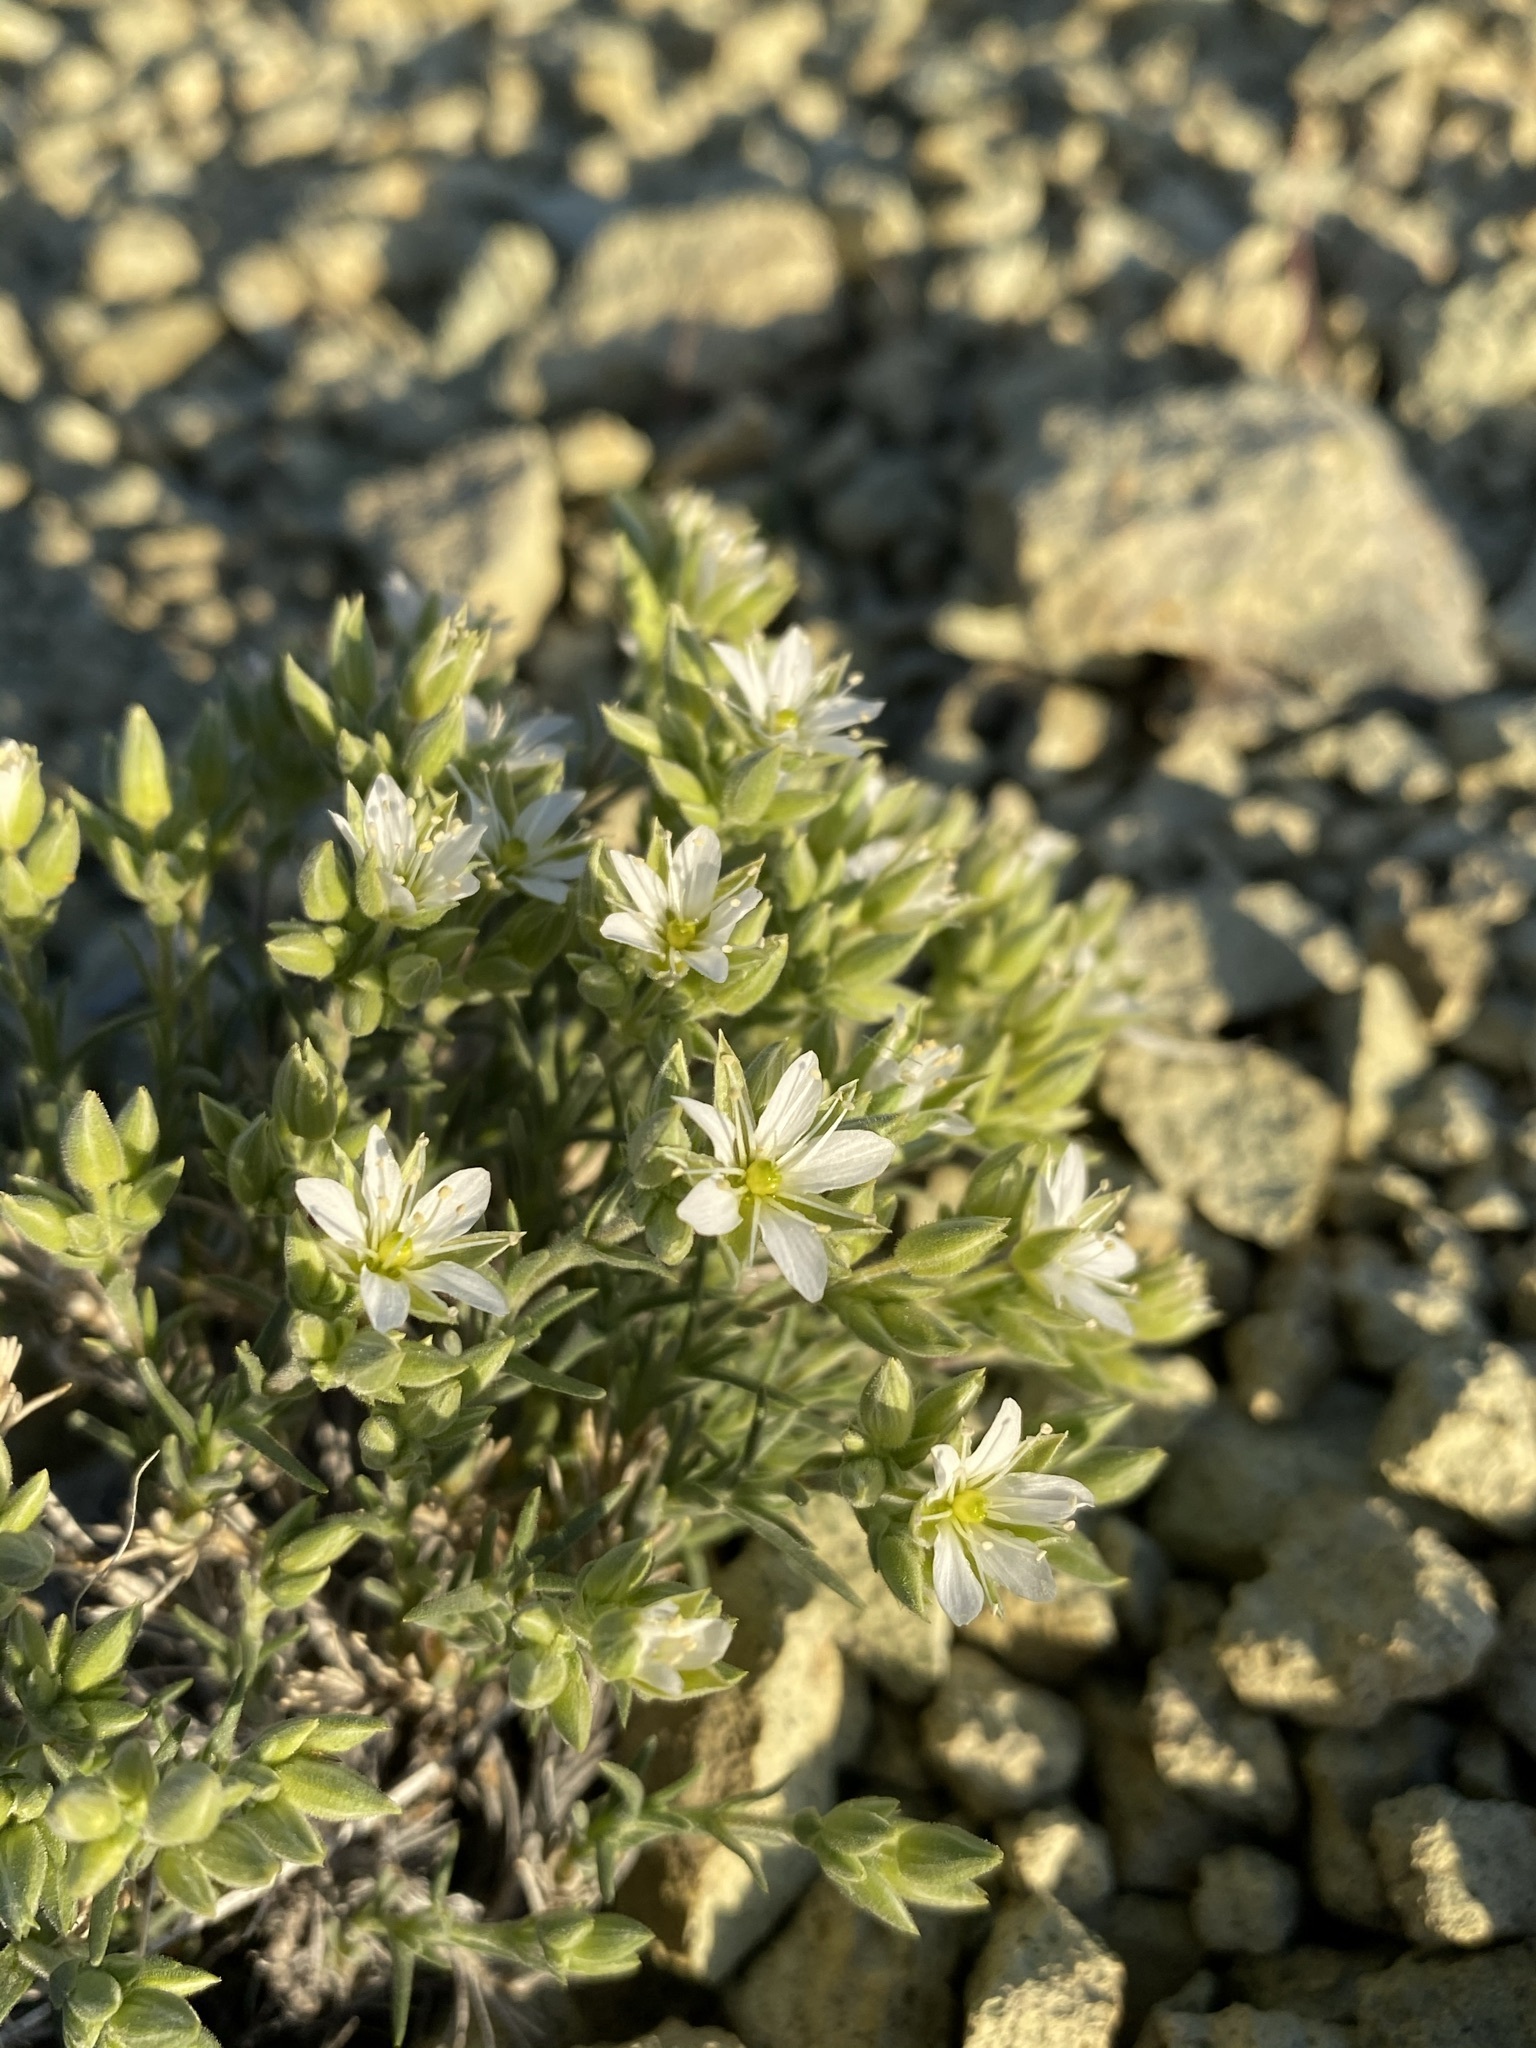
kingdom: Plantae
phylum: Tracheophyta
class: Magnoliopsida
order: Caryophyllales
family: Caryophyllaceae
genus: Sabulina
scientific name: Sabulina nuttallii
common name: Nuttall's stitchwort
